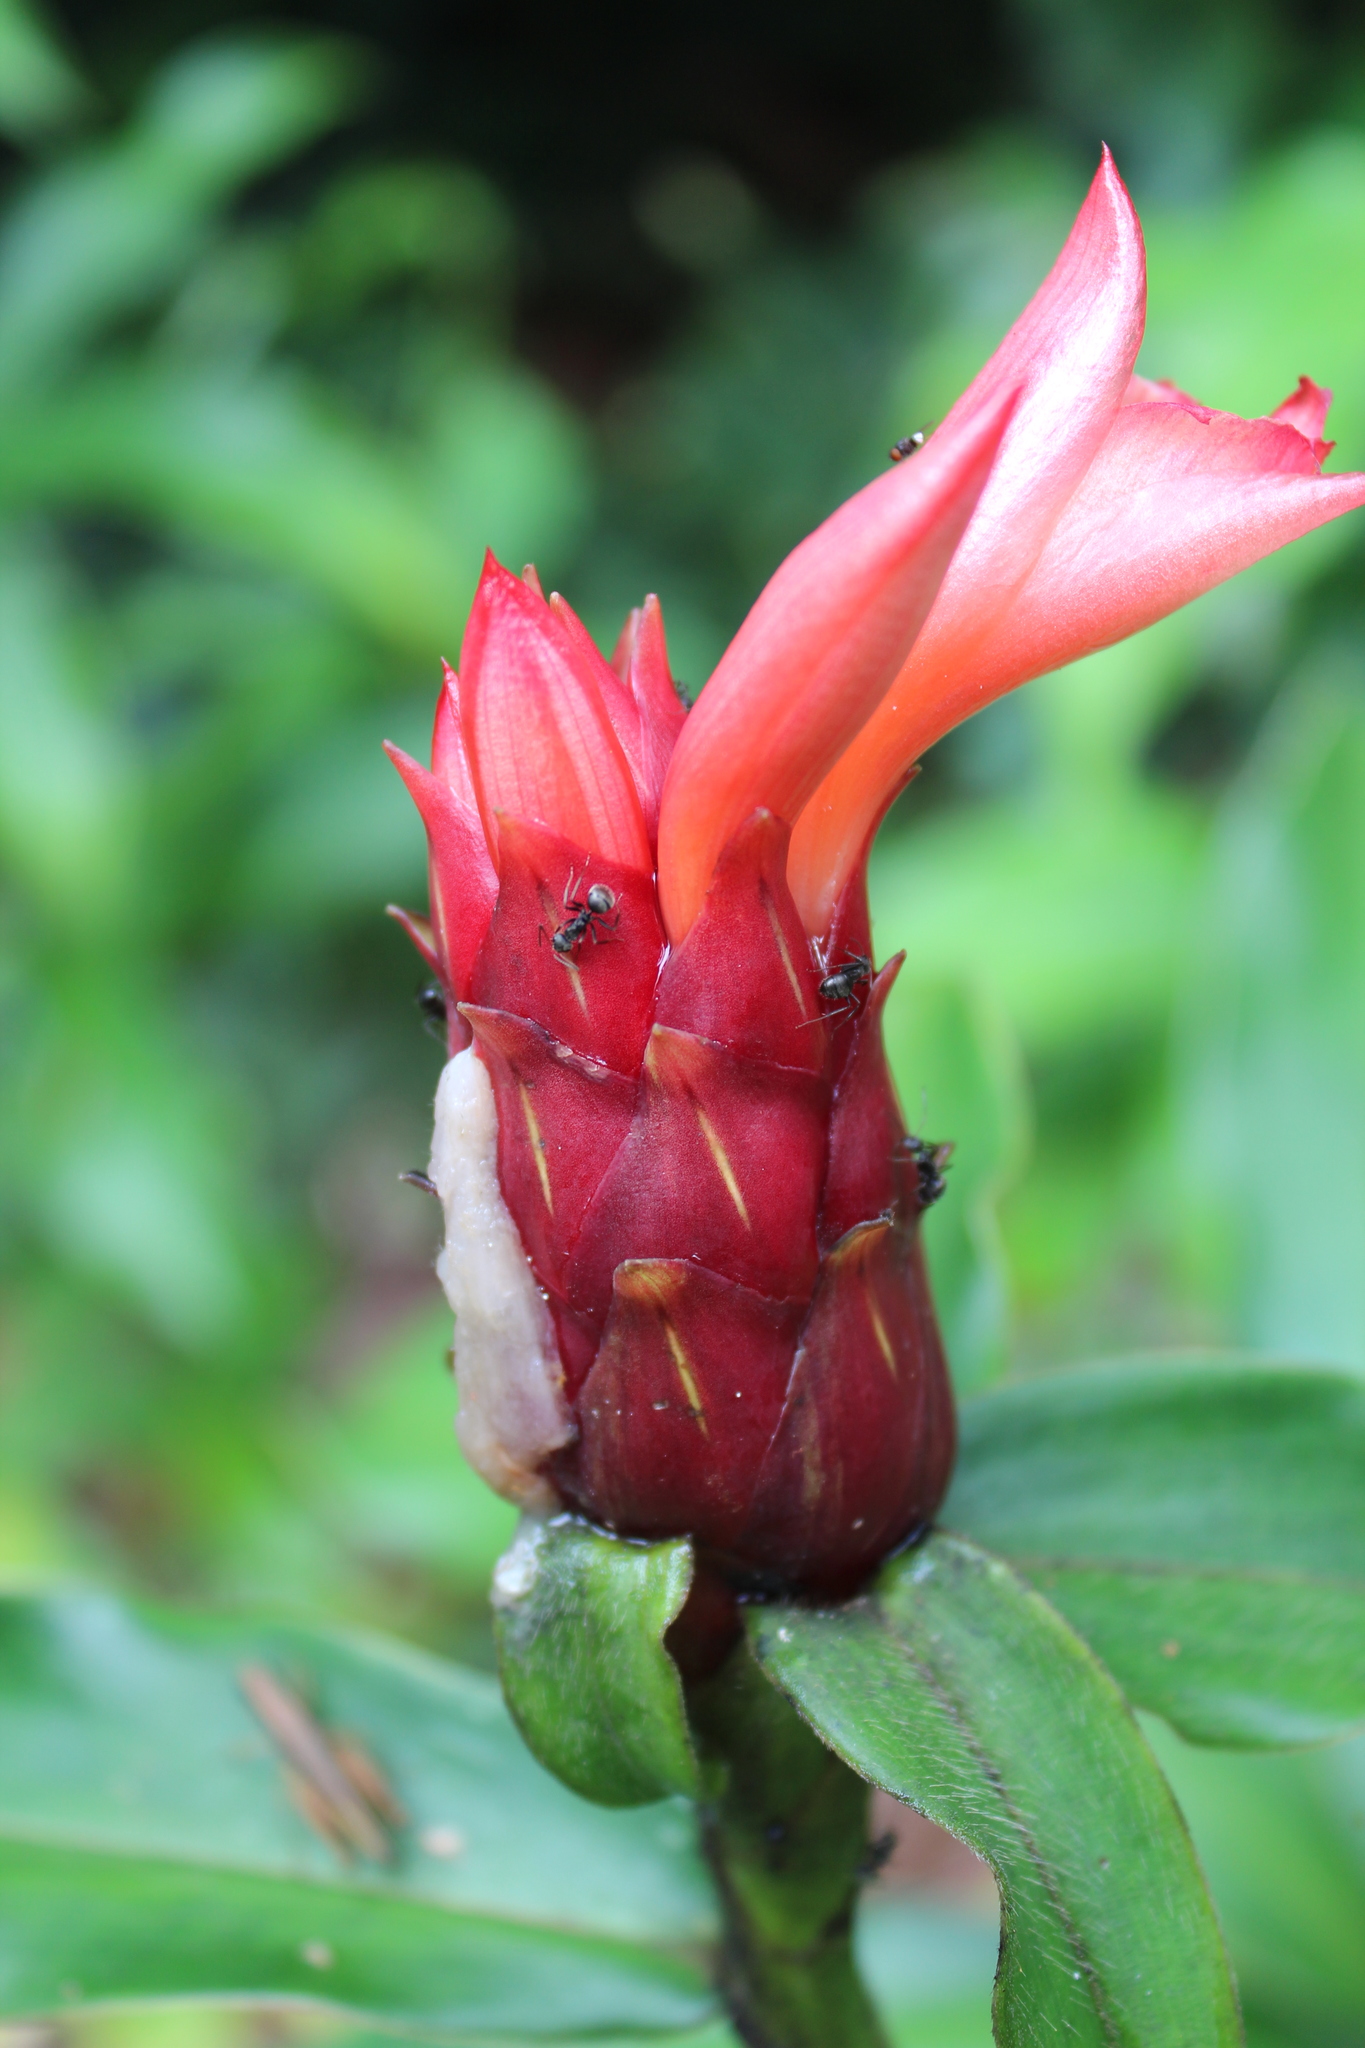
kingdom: Plantae
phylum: Tracheophyta
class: Liliopsida
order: Zingiberales
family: Costaceae
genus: Costus
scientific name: Costus scaber
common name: Spiral head ginger
